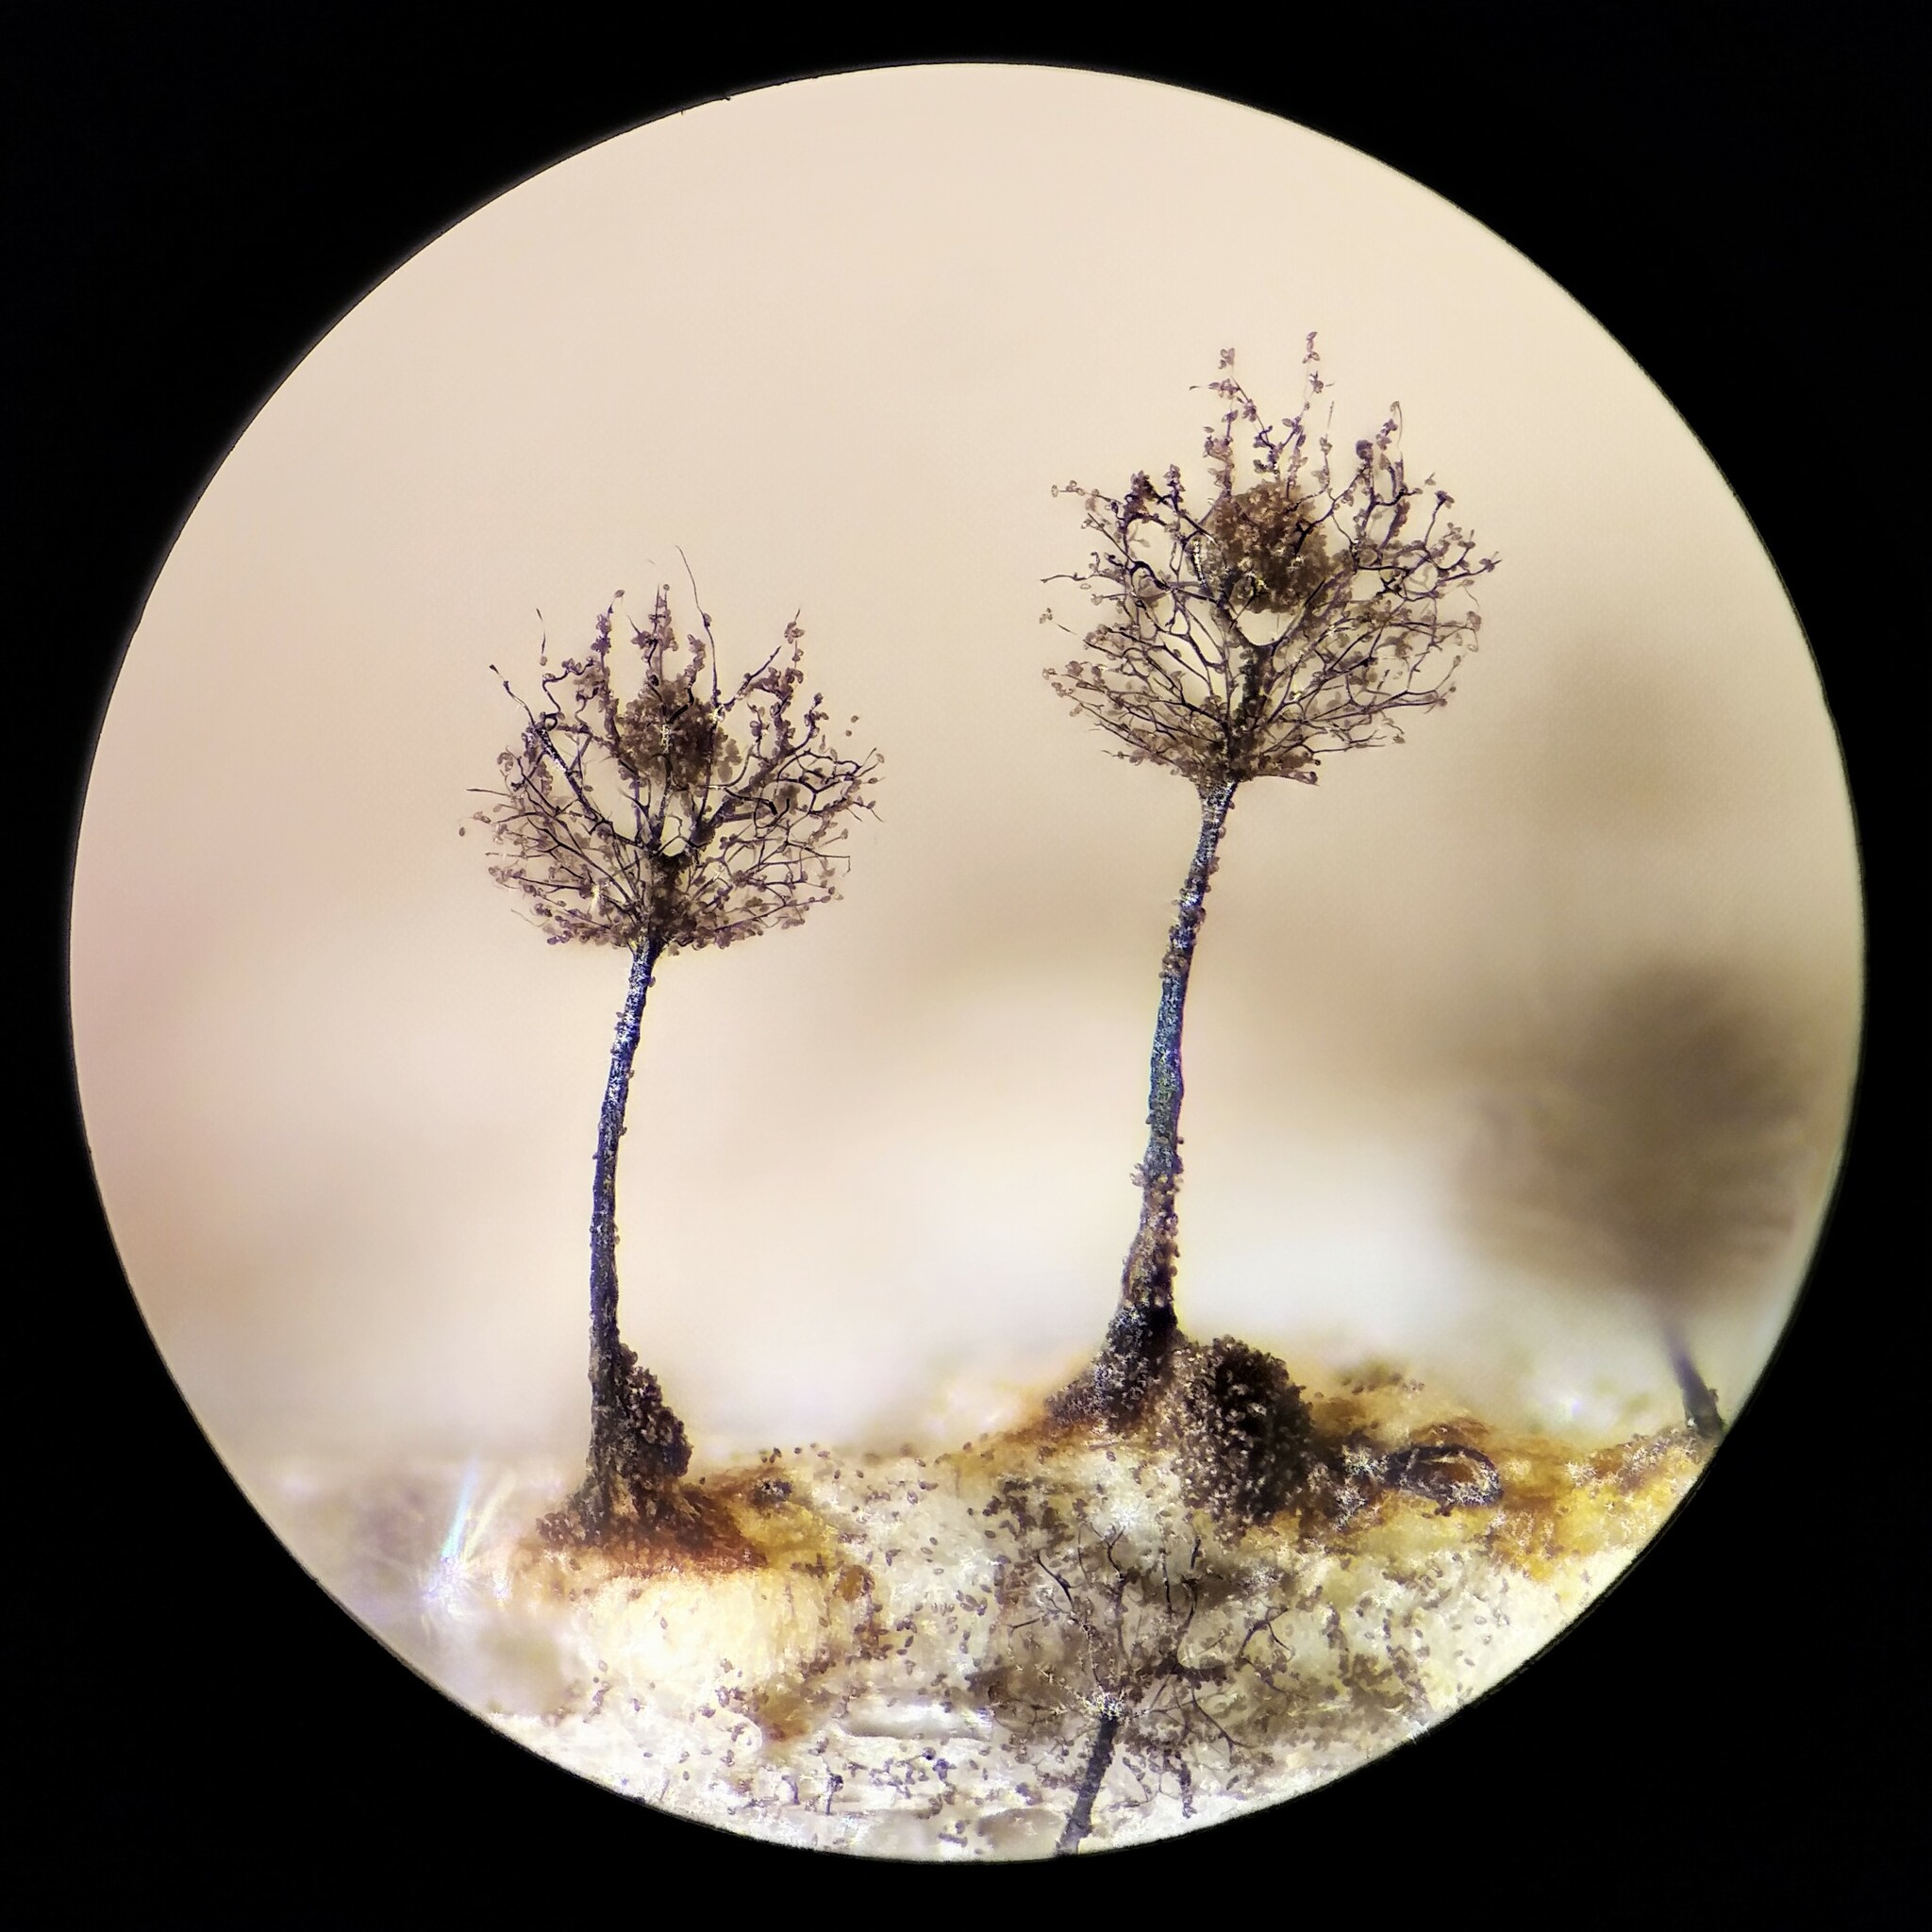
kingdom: Protozoa
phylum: Mycetozoa
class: Myxomycetes
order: Stemonitidales
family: Stemonitidaceae
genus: Paradiacheopsis
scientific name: Paradiacheopsis acanthodes
